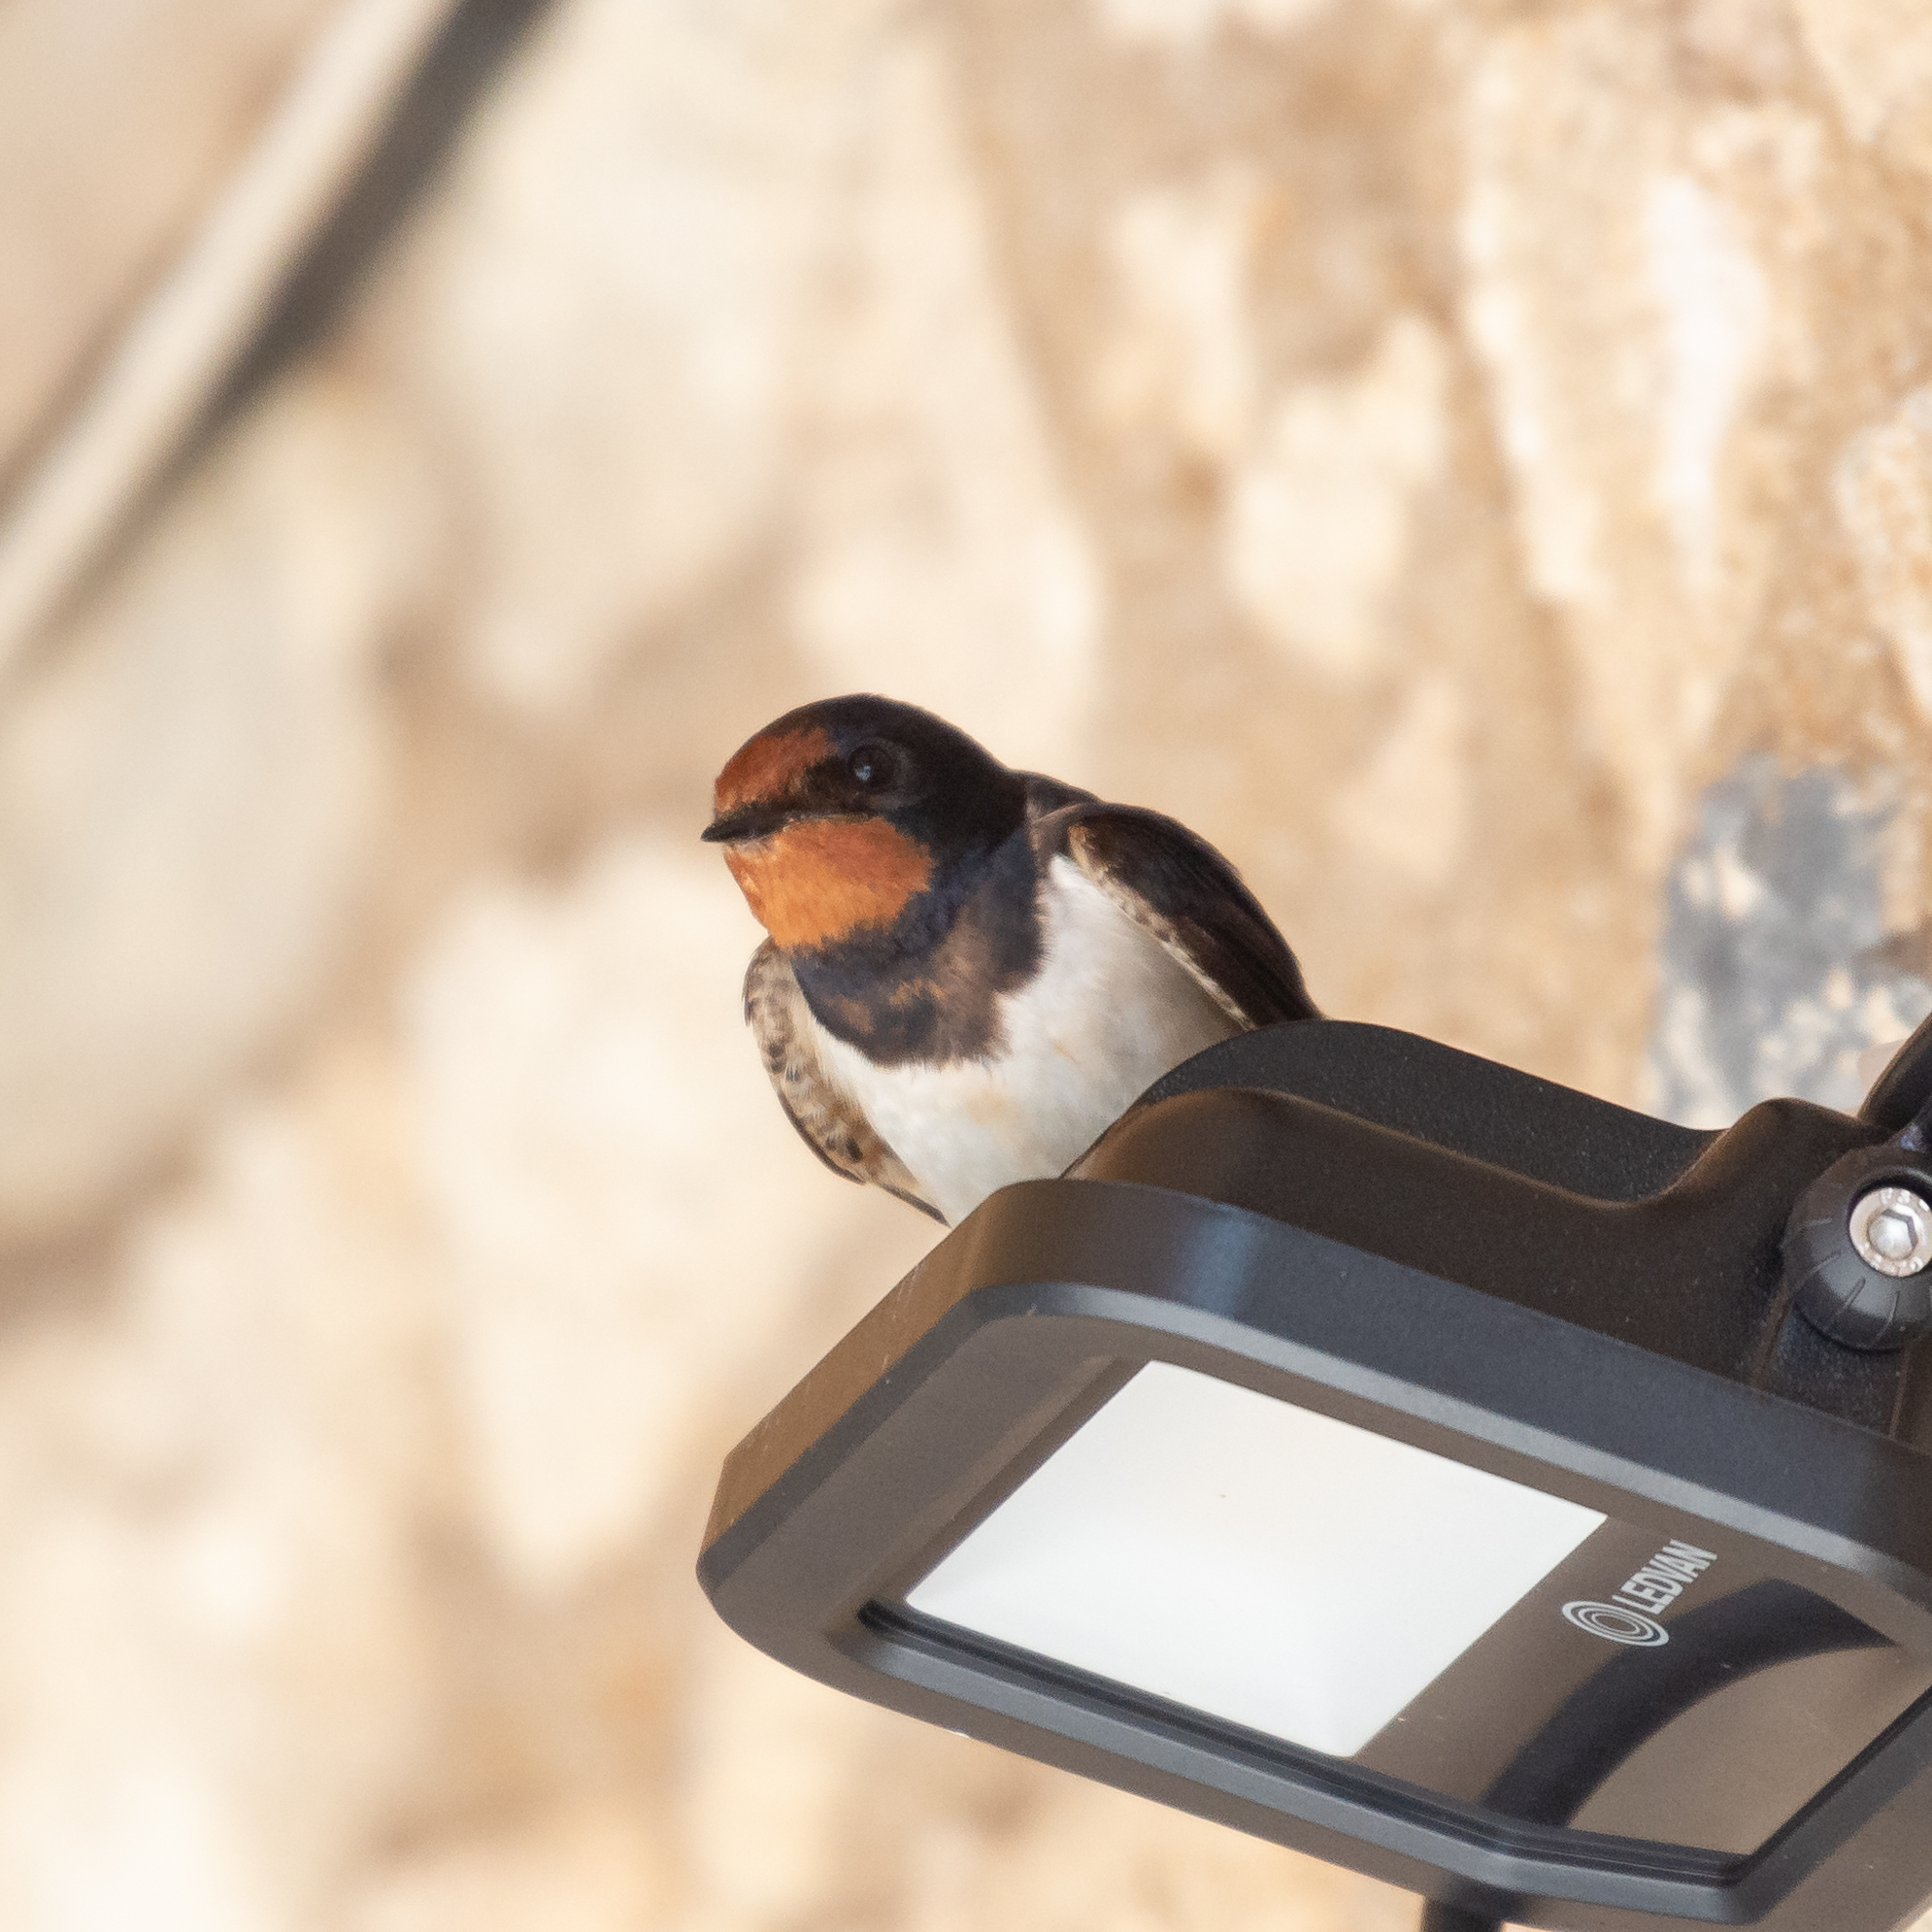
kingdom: Animalia
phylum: Chordata
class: Aves
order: Passeriformes
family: Hirundinidae
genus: Hirundo
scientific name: Hirundo rustica
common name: Barn swallow
